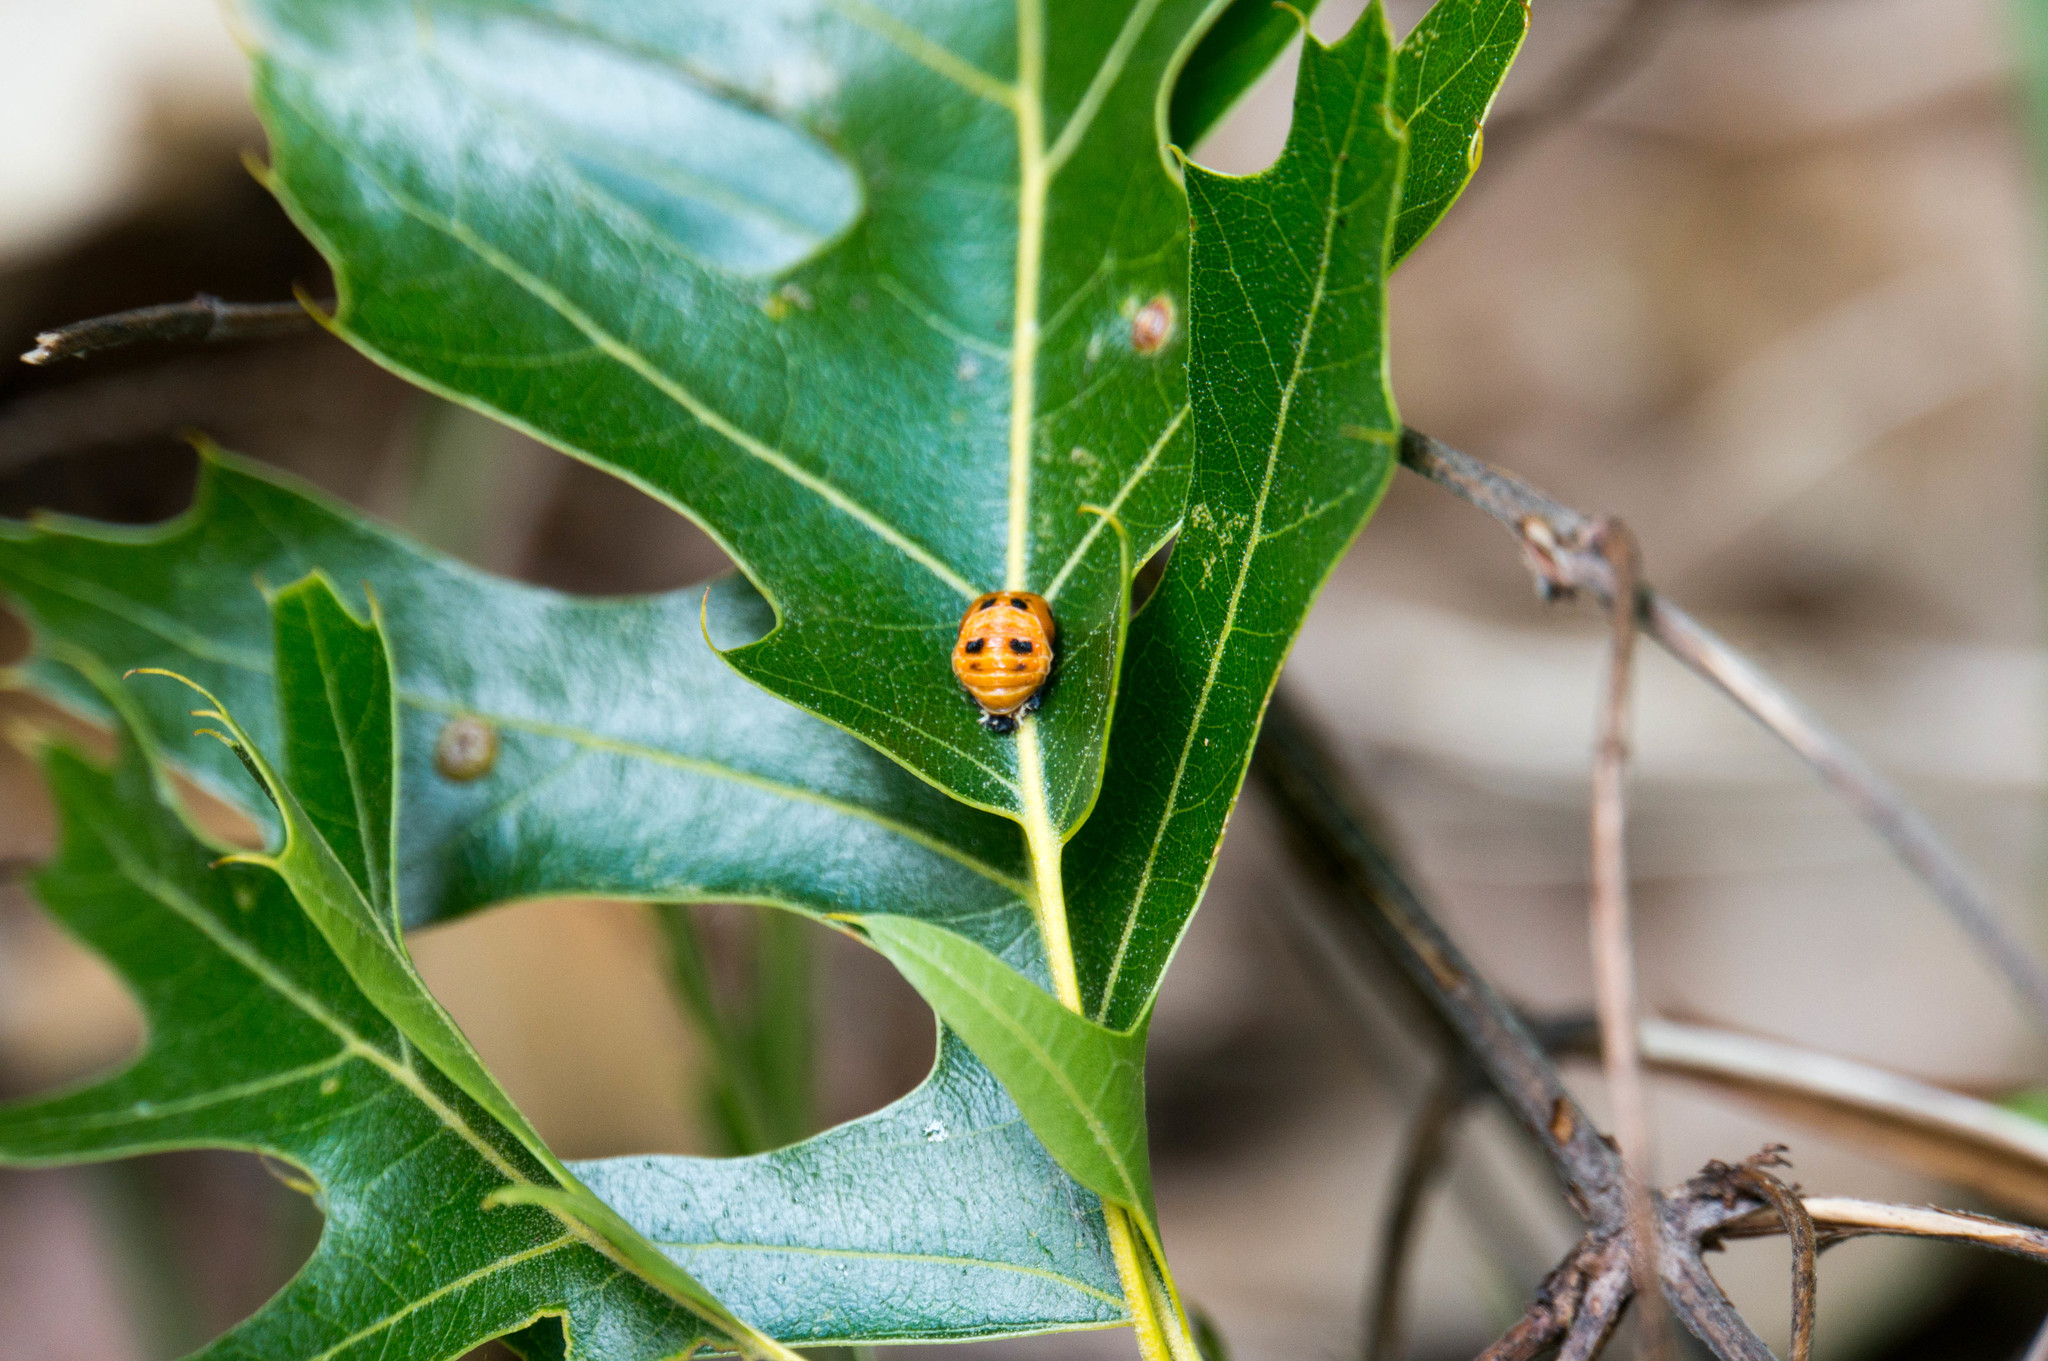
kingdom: Animalia
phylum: Arthropoda
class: Insecta
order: Coleoptera
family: Coccinellidae
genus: Harmonia
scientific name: Harmonia axyridis
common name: Harlequin ladybird
